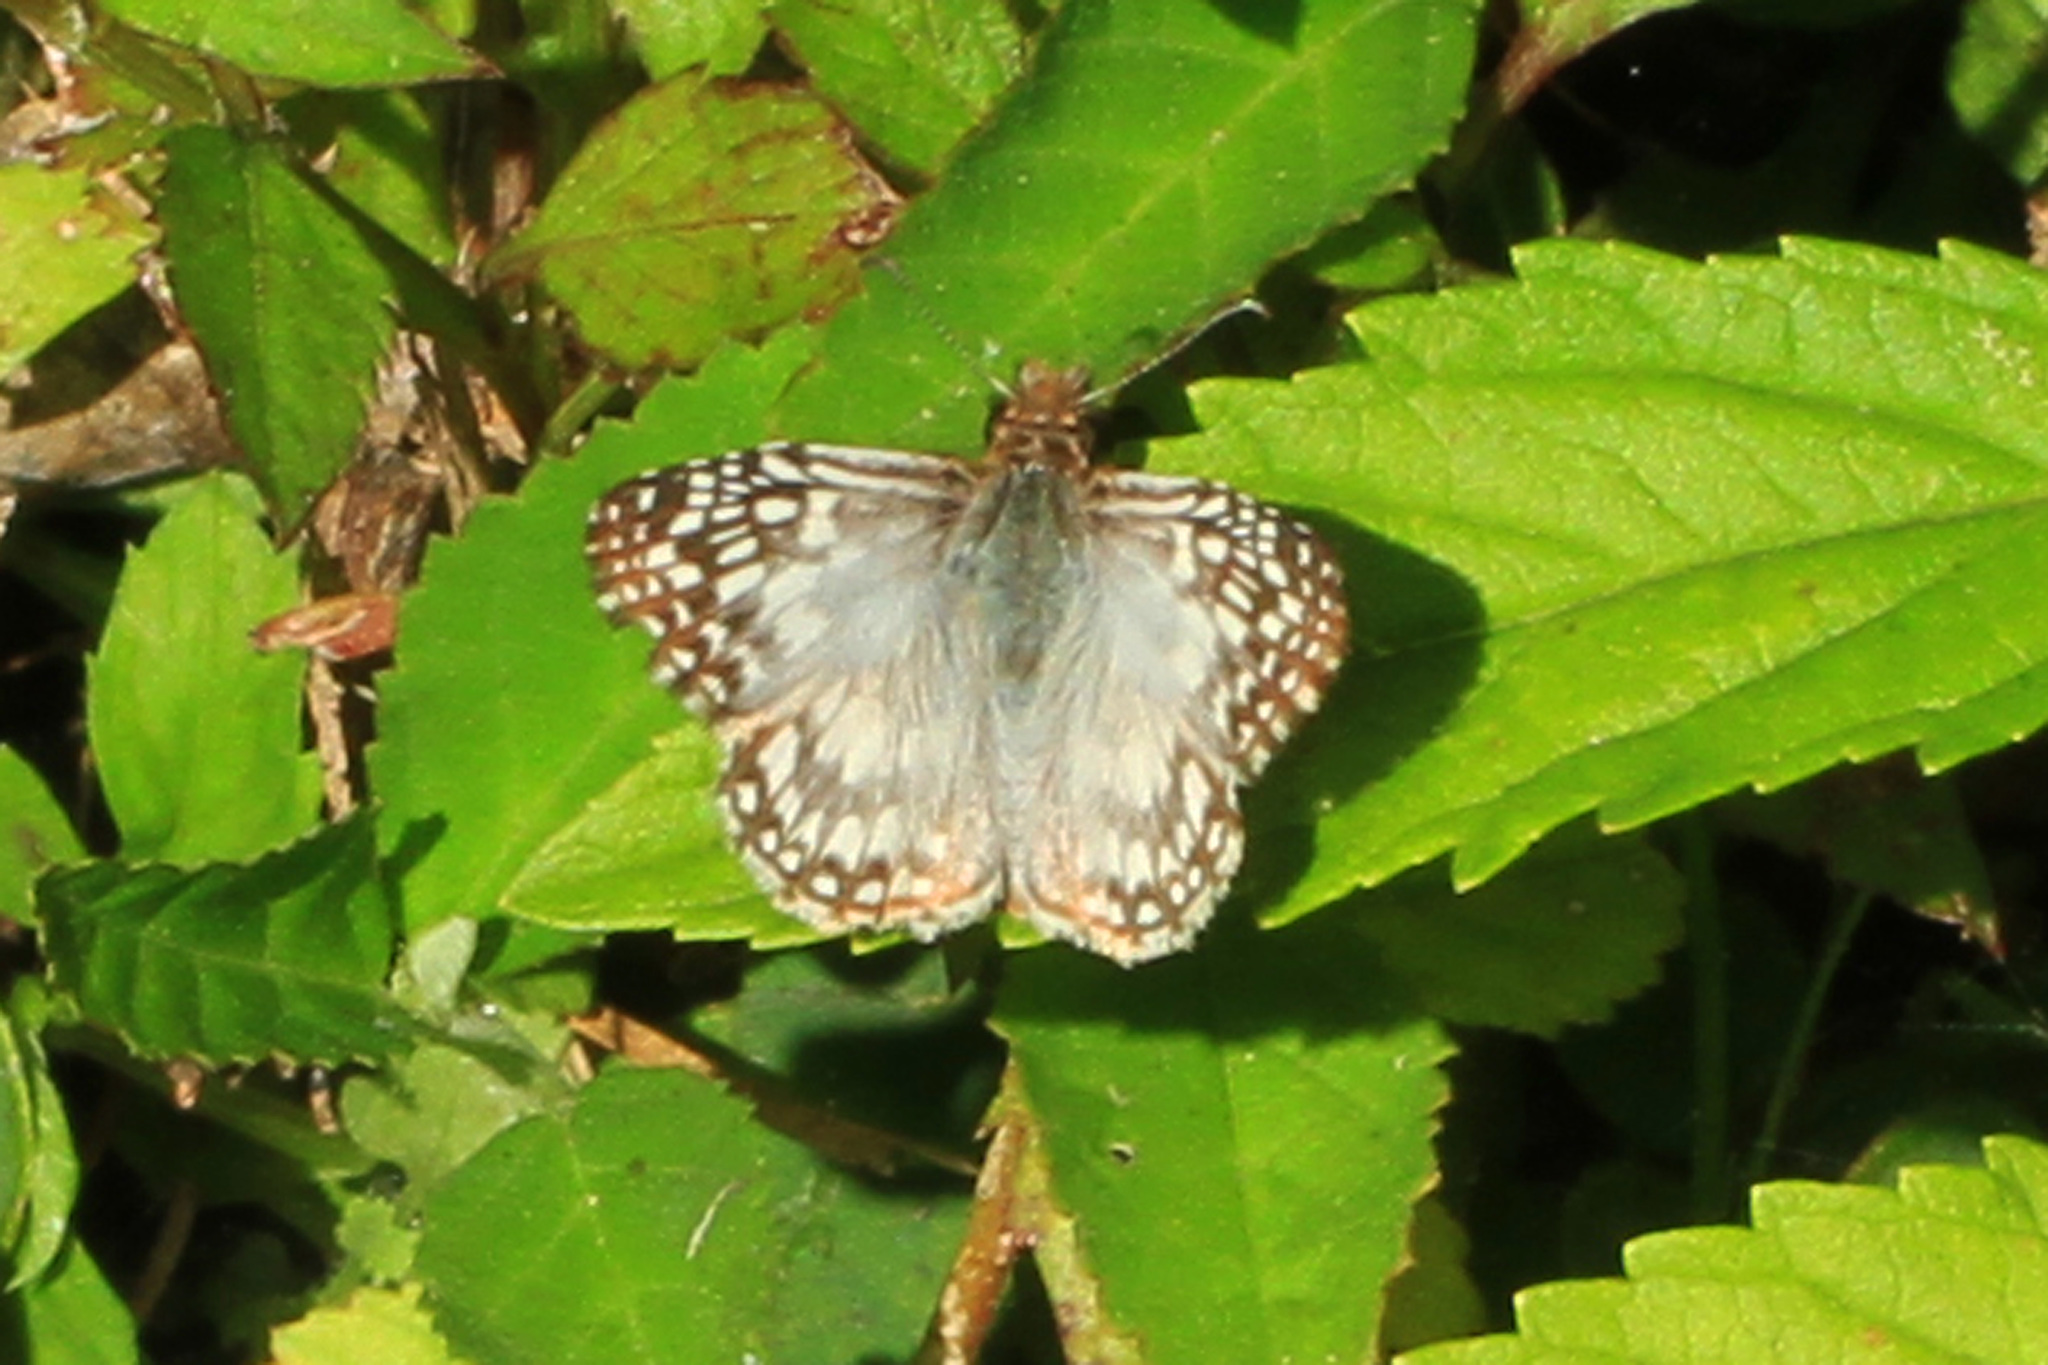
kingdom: Animalia
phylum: Arthropoda
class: Insecta
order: Lepidoptera
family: Hesperiidae
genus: Pyrgus
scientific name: Pyrgus oileus
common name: Tropical checkered-skipper
